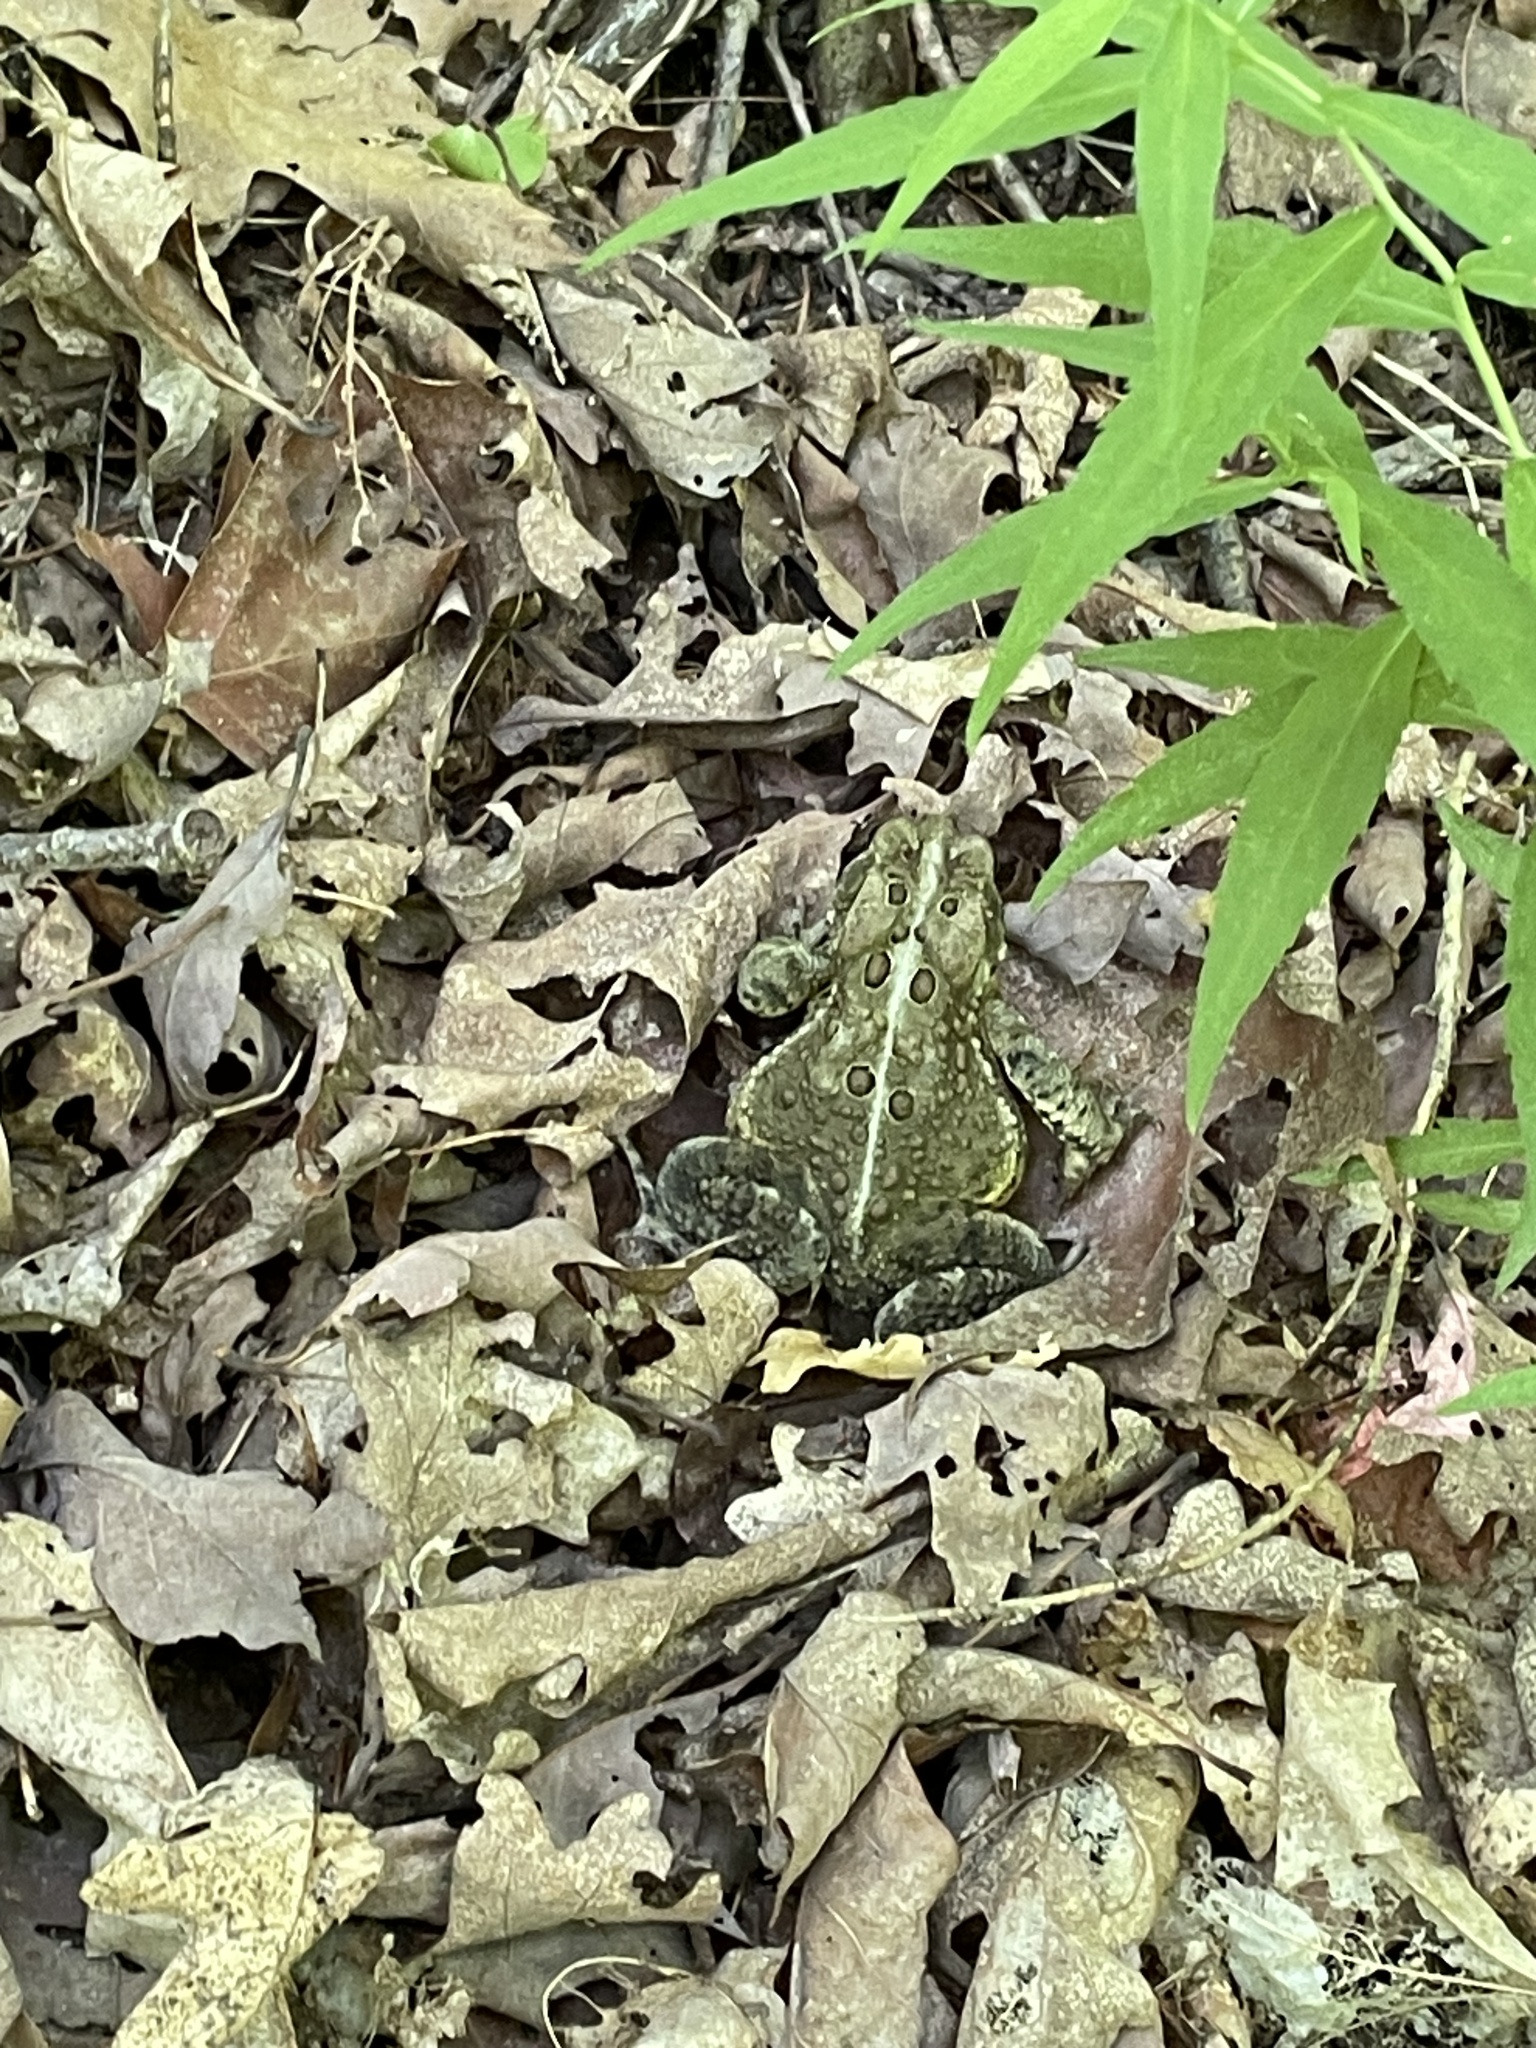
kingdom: Animalia
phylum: Chordata
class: Amphibia
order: Anura
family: Bufonidae
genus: Anaxyrus
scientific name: Anaxyrus americanus
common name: American toad
